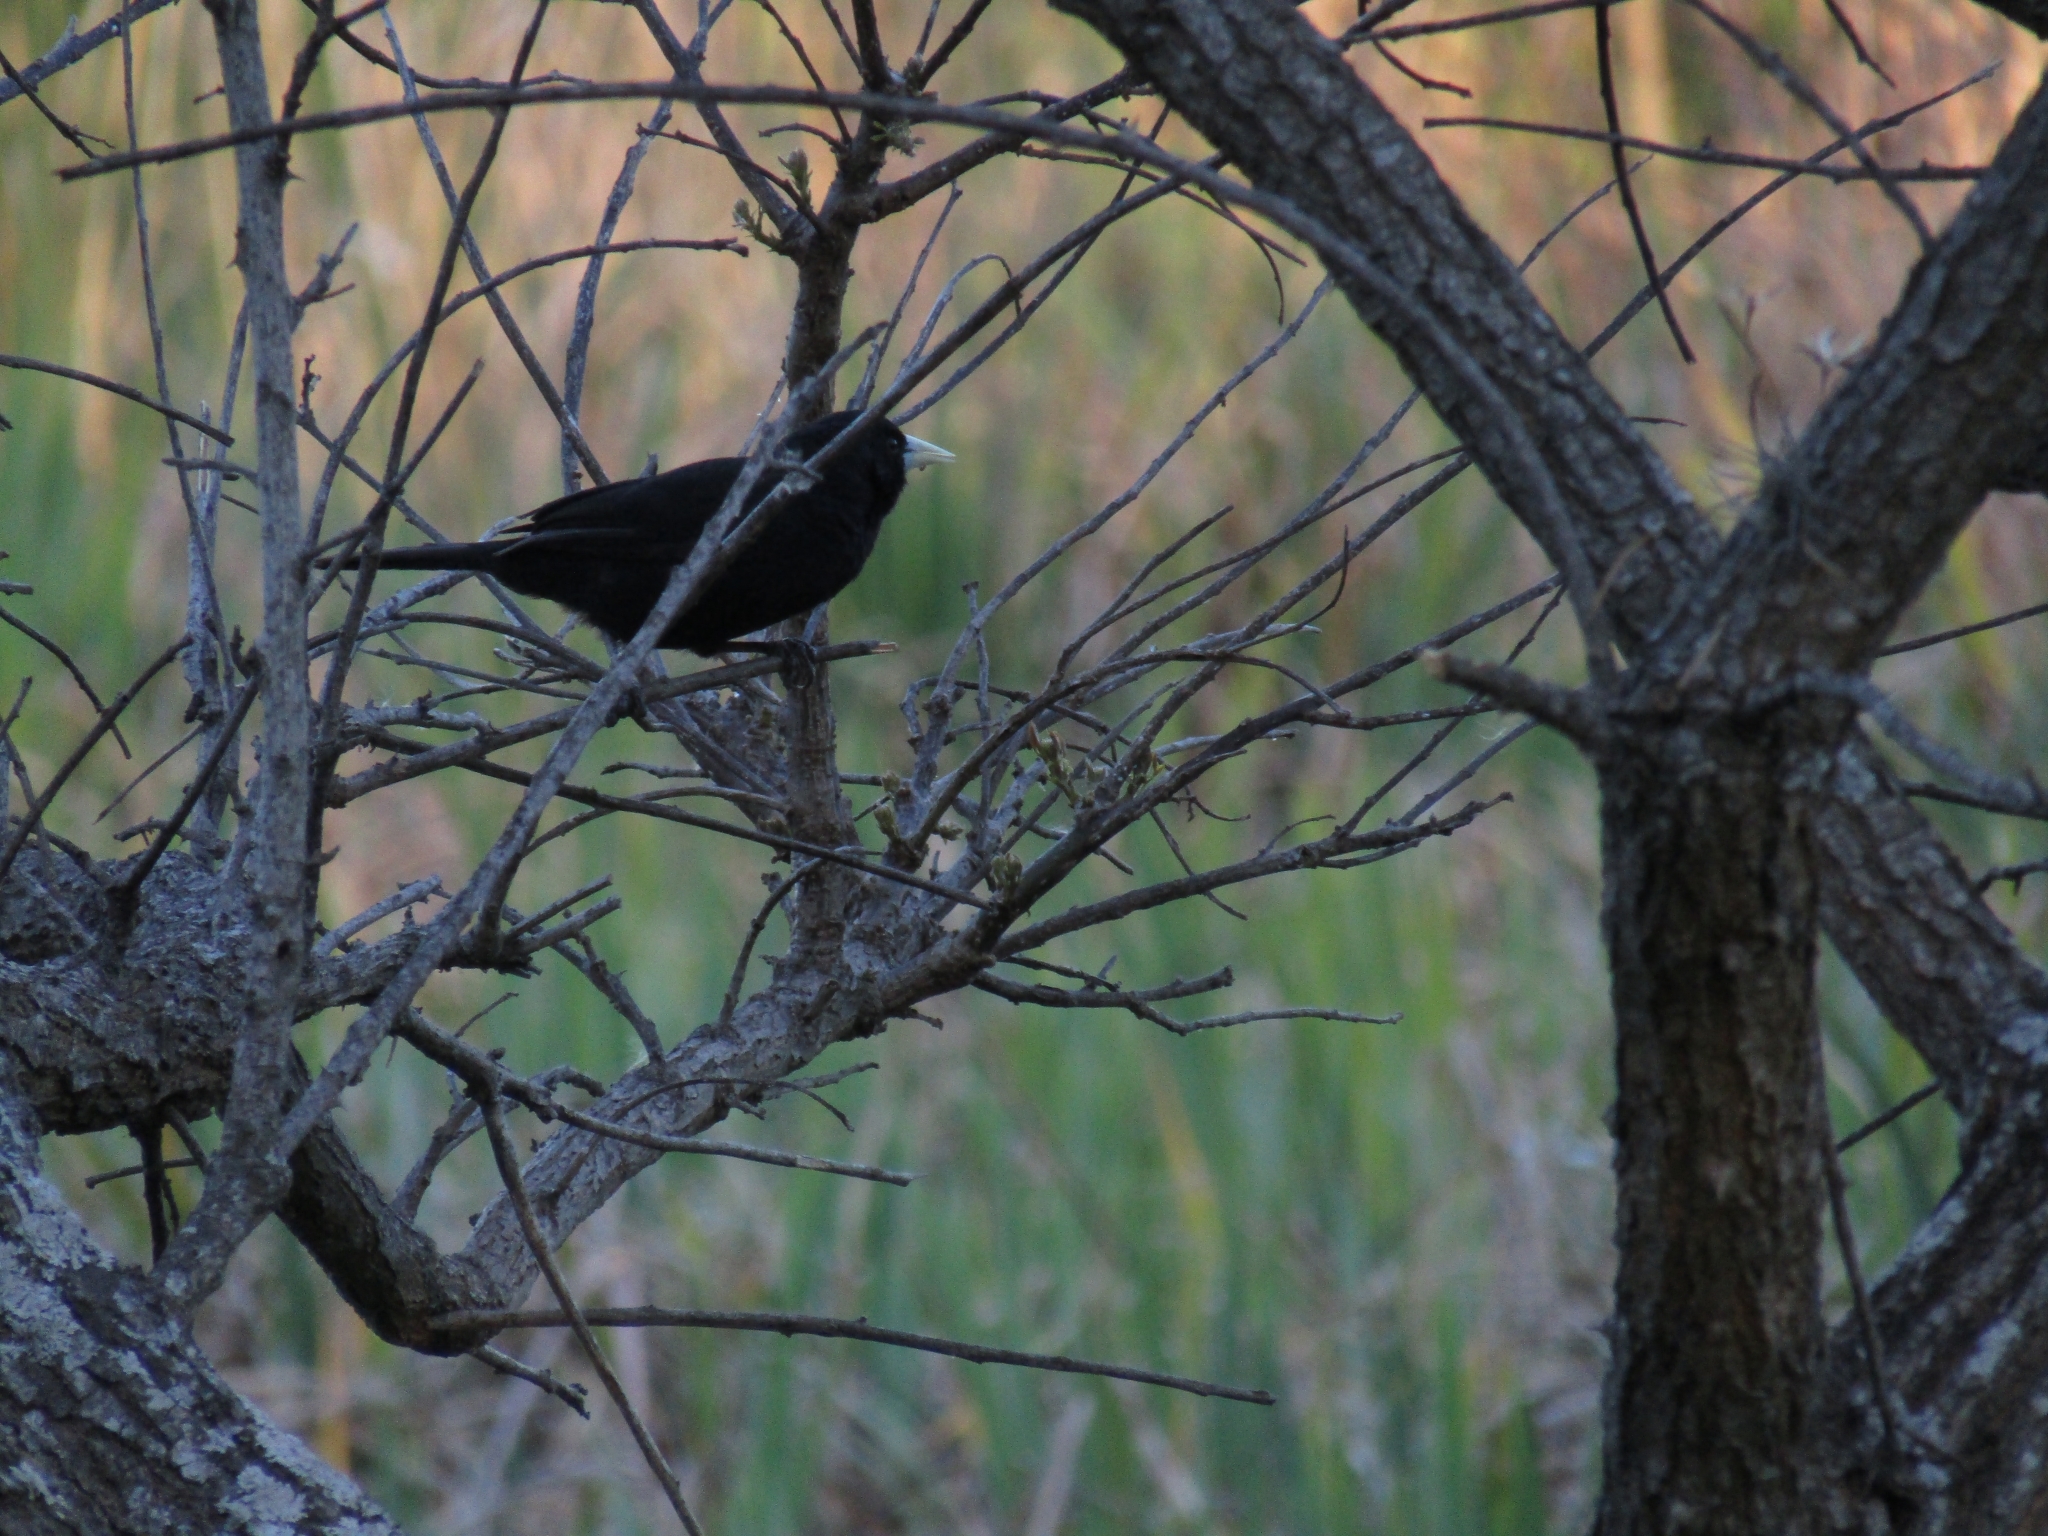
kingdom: Animalia
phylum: Chordata
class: Aves
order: Passeriformes
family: Icteridae
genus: Cacicus
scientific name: Cacicus solitarius
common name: Solitary cacique
